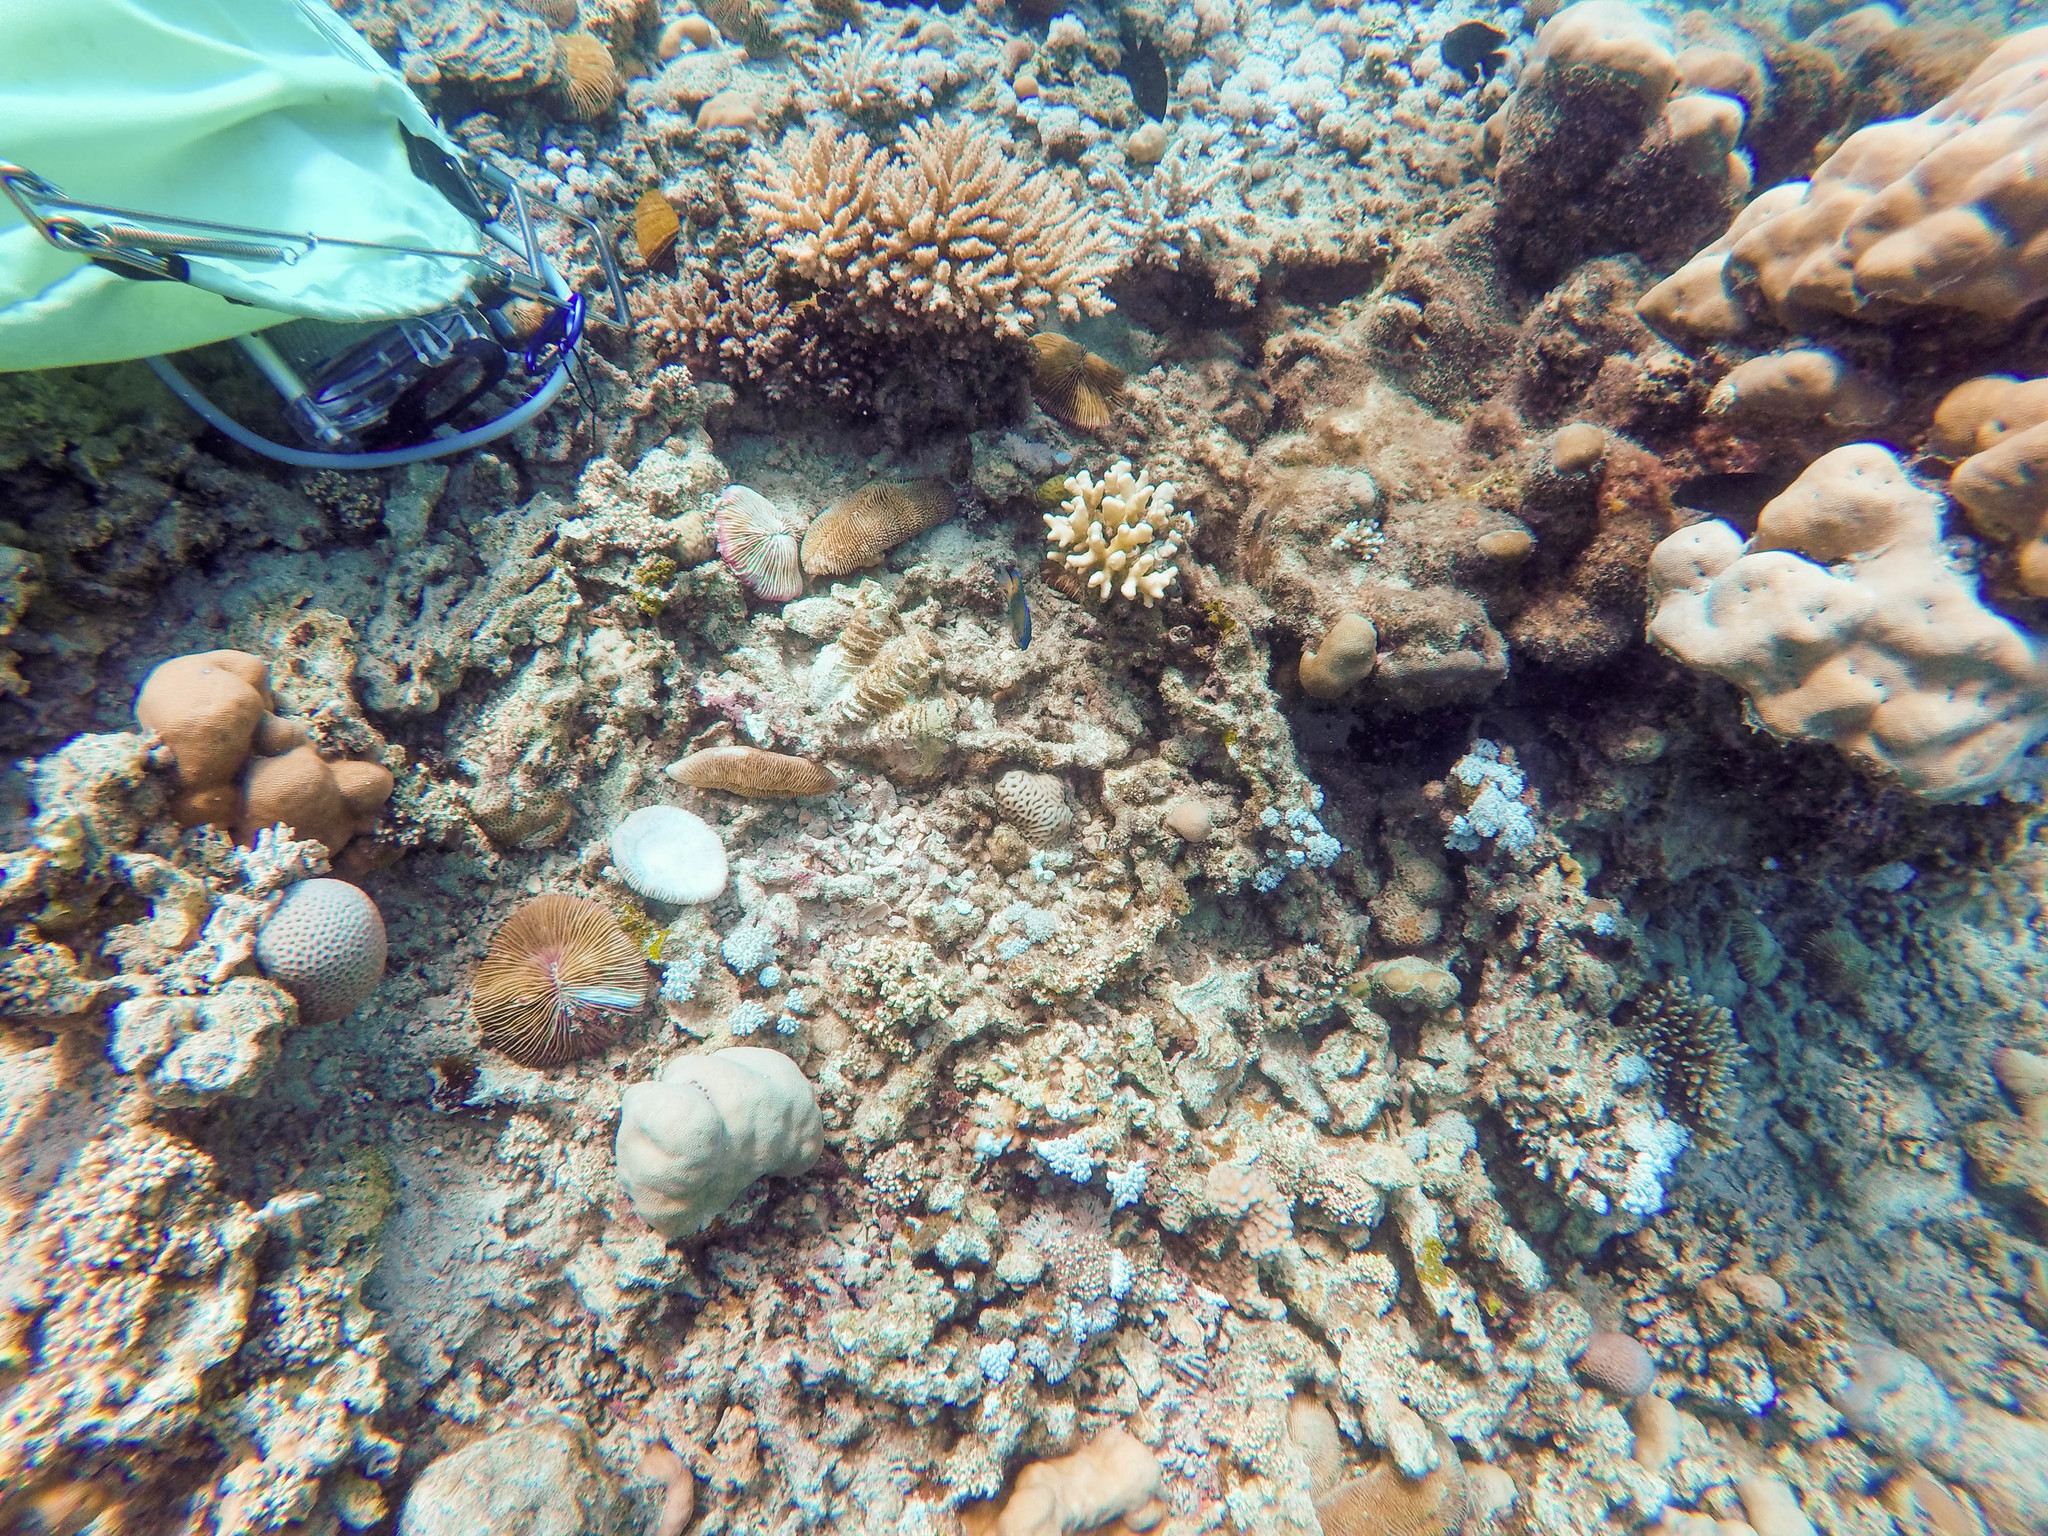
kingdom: Animalia
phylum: Cnidaria
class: Anthozoa
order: Scleractinia
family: Fungiidae
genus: Herpolitha
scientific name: Herpolitha limax
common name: Striate boomerang coral
